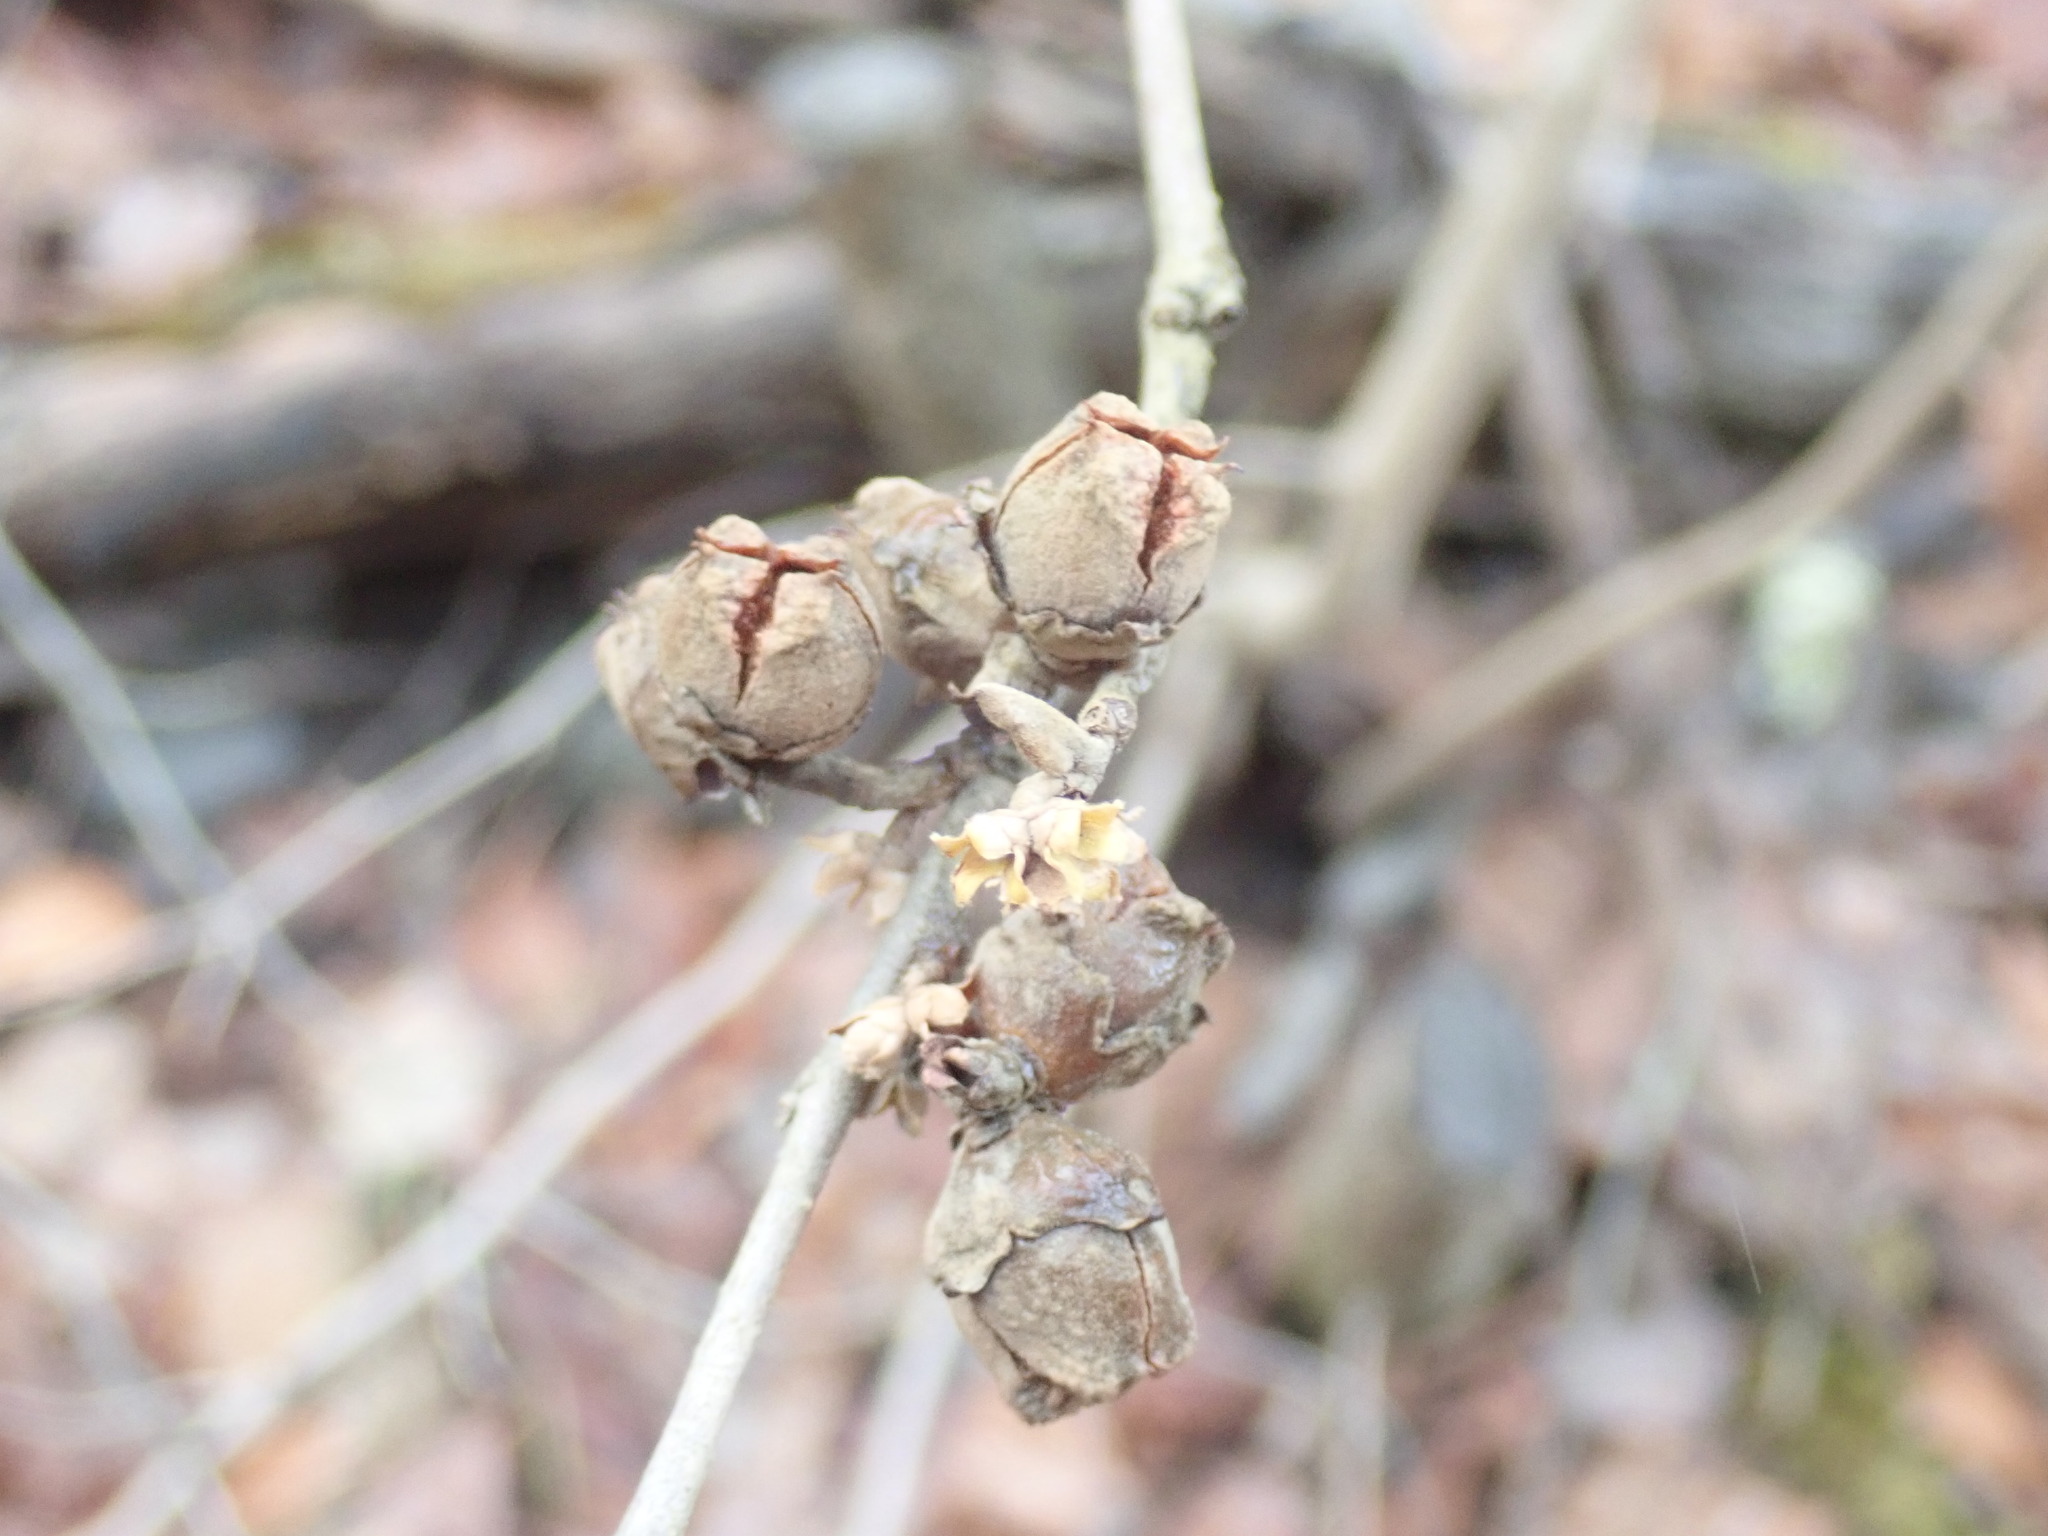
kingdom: Plantae
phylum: Tracheophyta
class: Magnoliopsida
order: Saxifragales
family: Hamamelidaceae
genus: Hamamelis
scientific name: Hamamelis virginiana
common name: Witch-hazel
